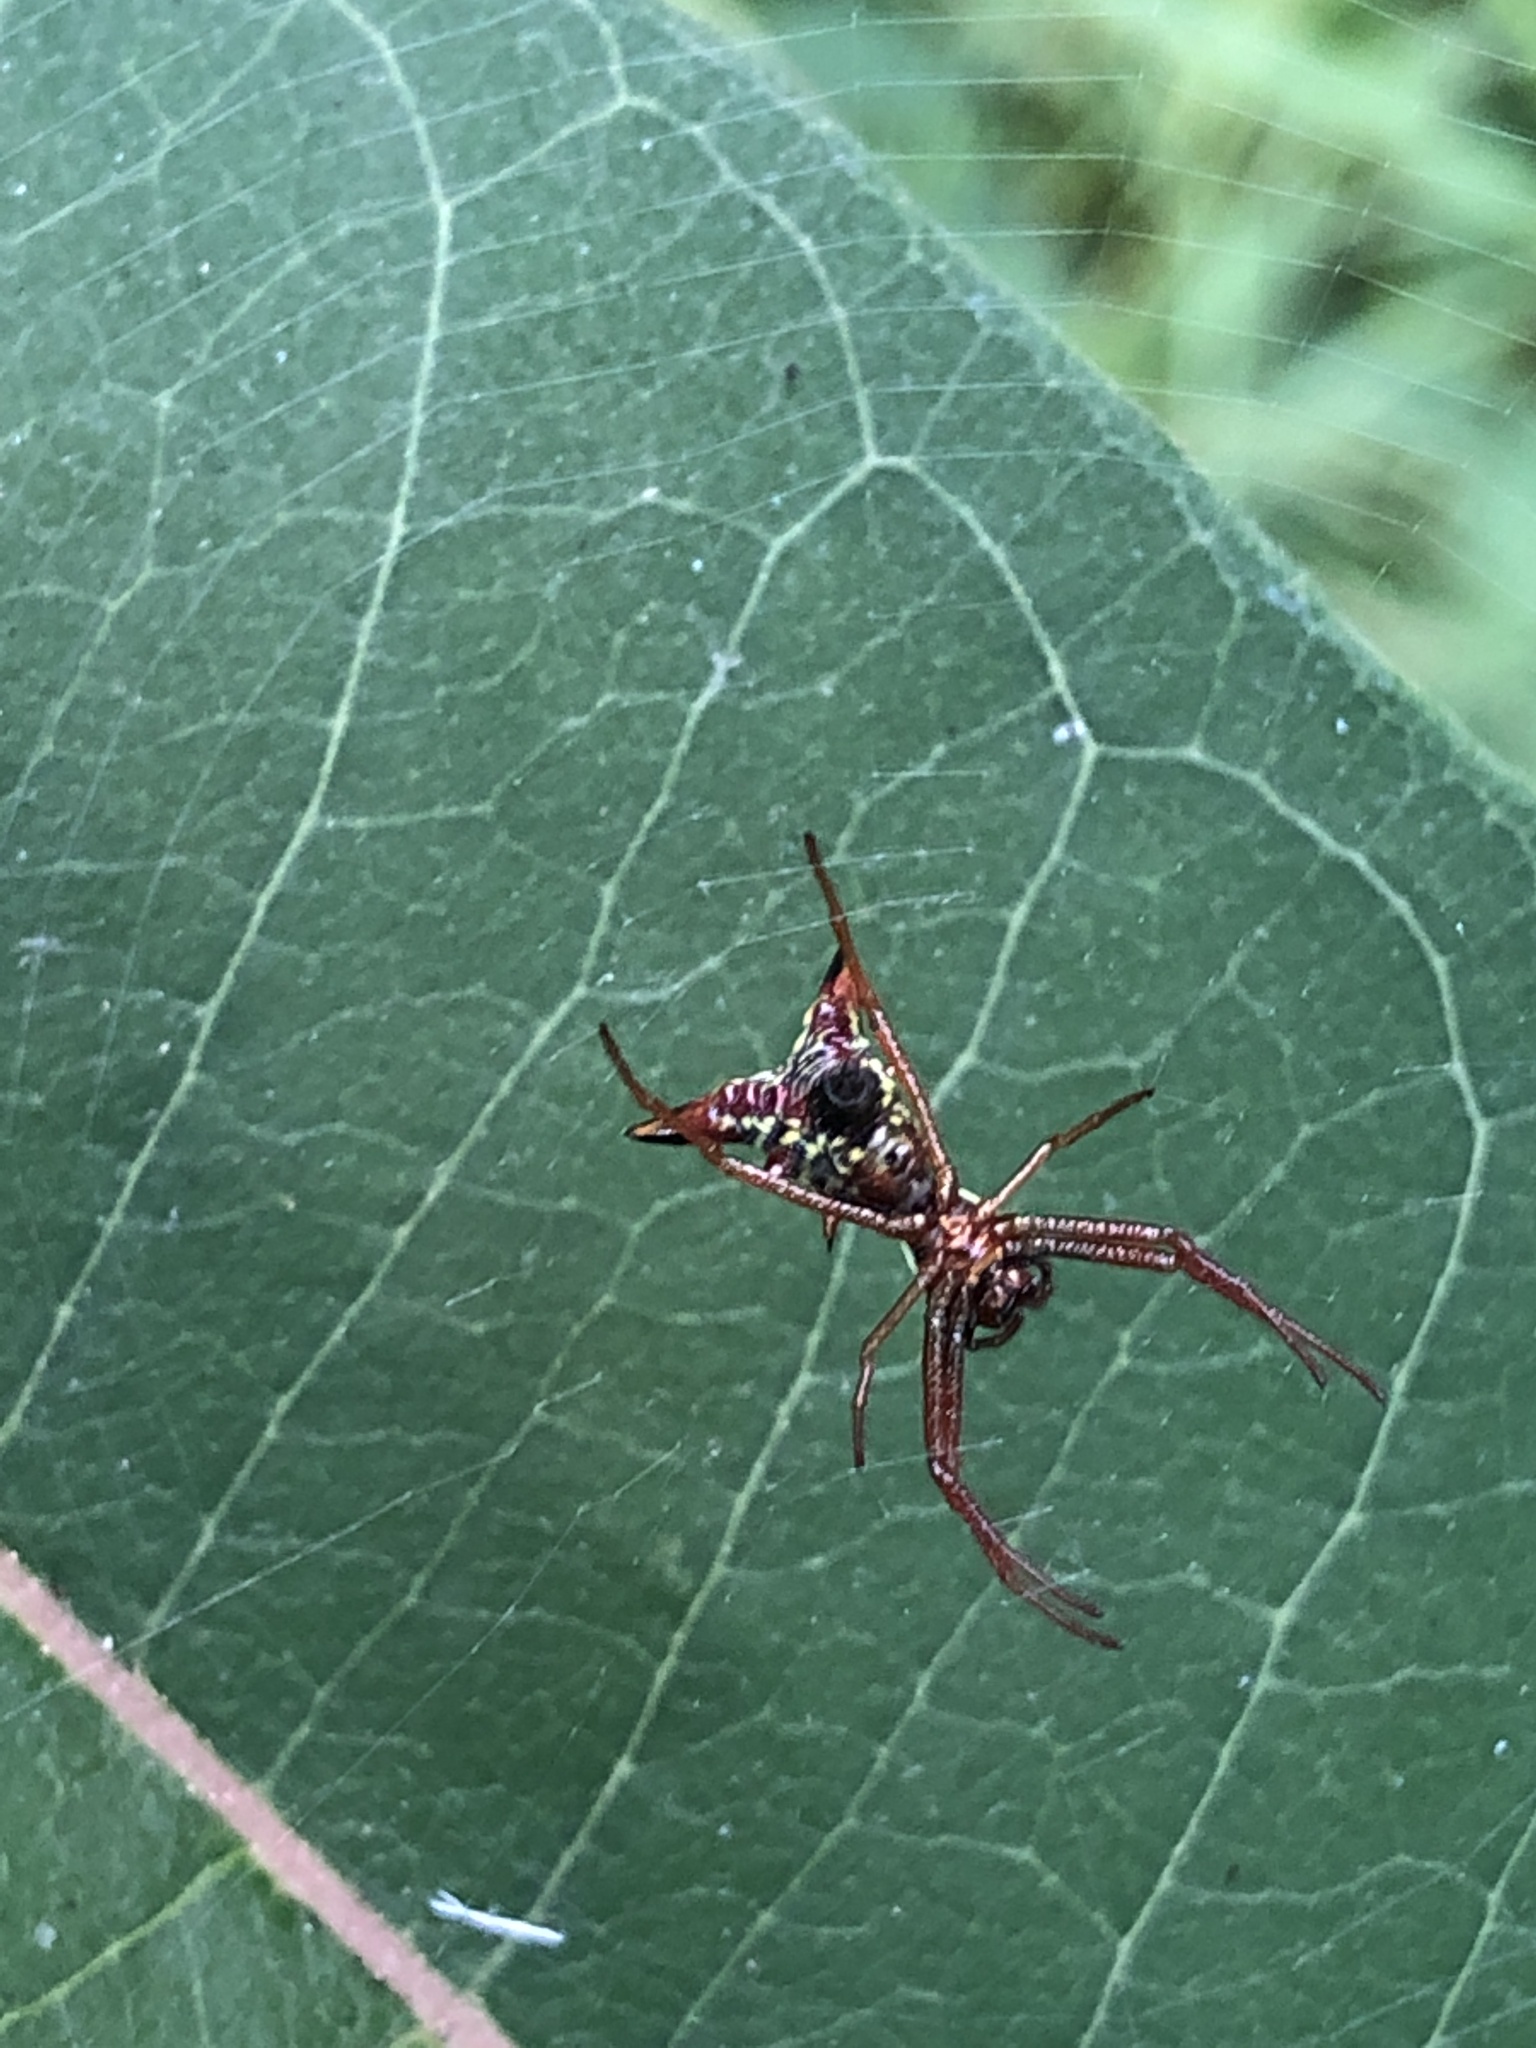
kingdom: Animalia
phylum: Arthropoda
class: Arachnida
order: Araneae
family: Araneidae
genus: Micrathena
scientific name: Micrathena sagittata
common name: Orb weavers
